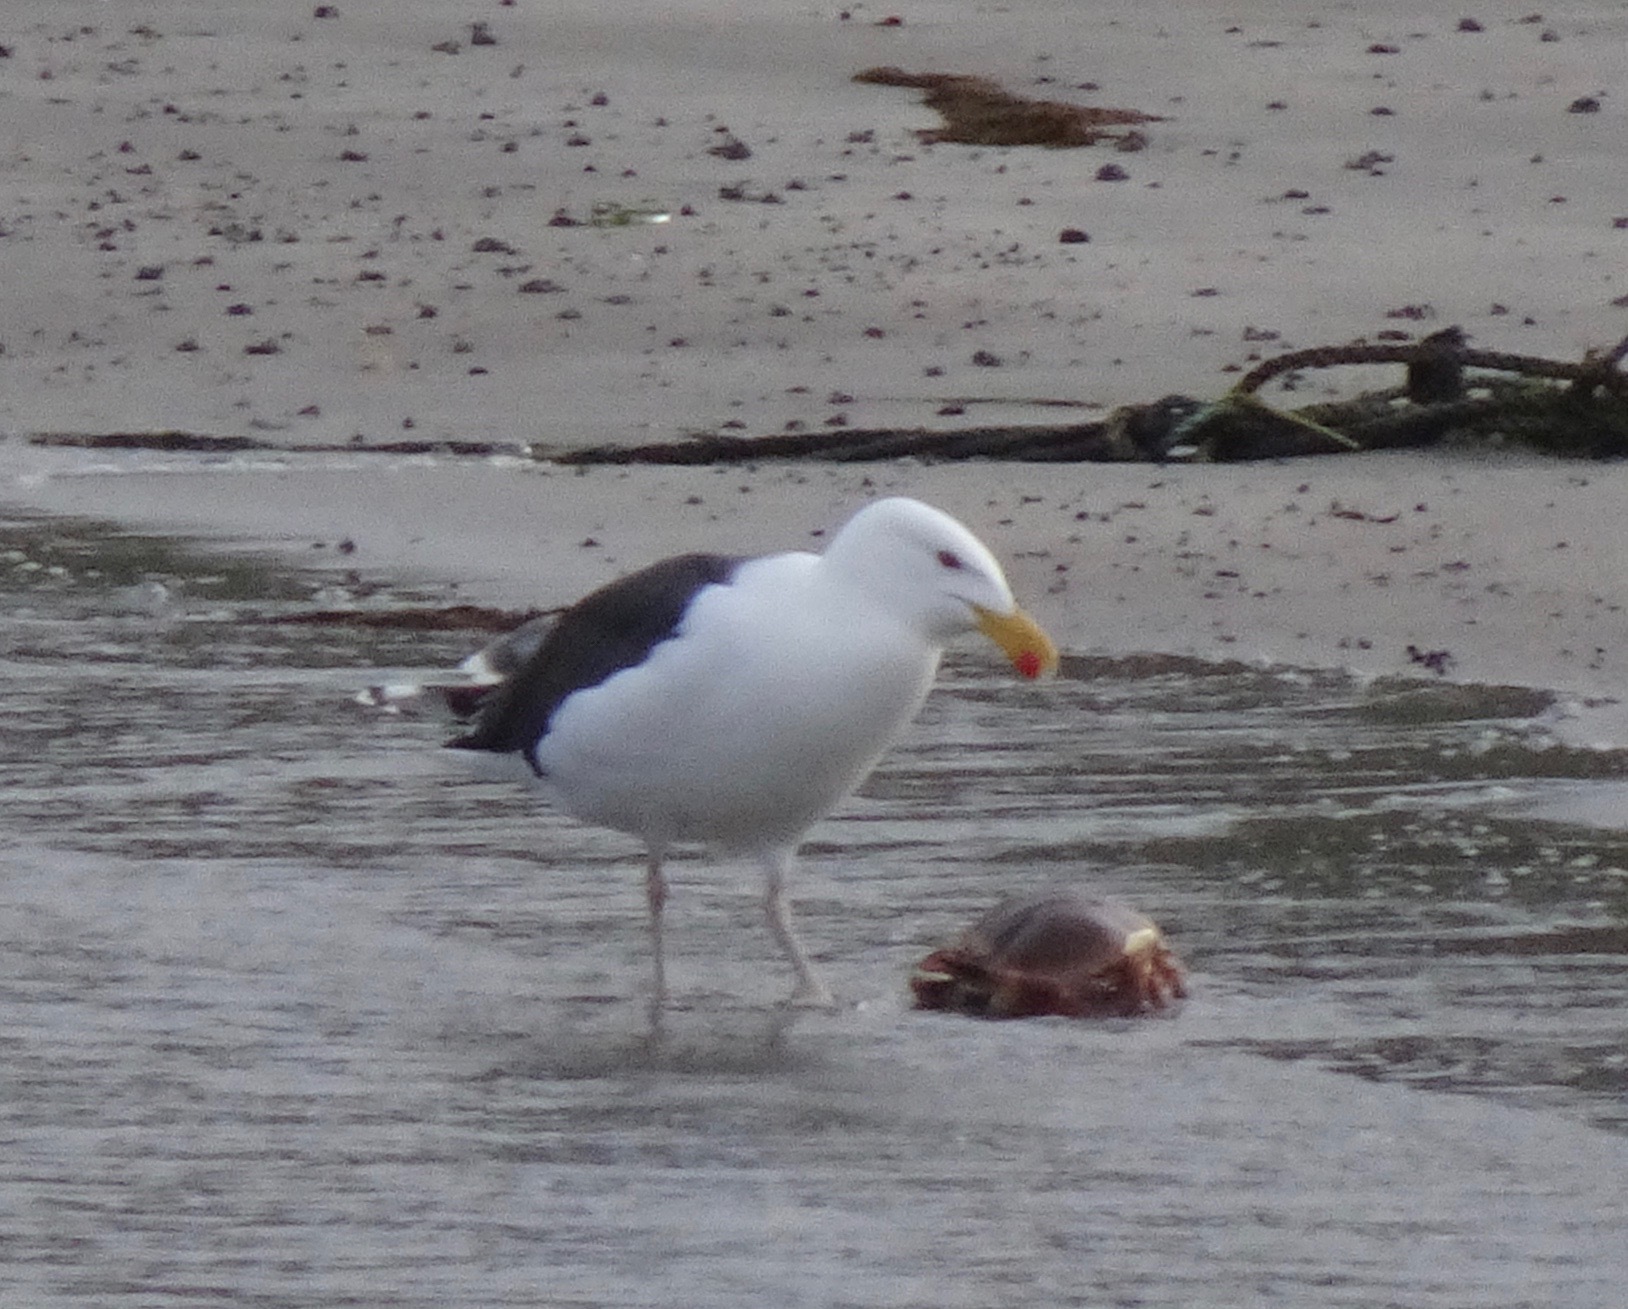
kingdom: Animalia
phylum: Chordata
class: Aves
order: Charadriiformes
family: Laridae
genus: Larus
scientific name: Larus marinus
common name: Great black-backed gull
